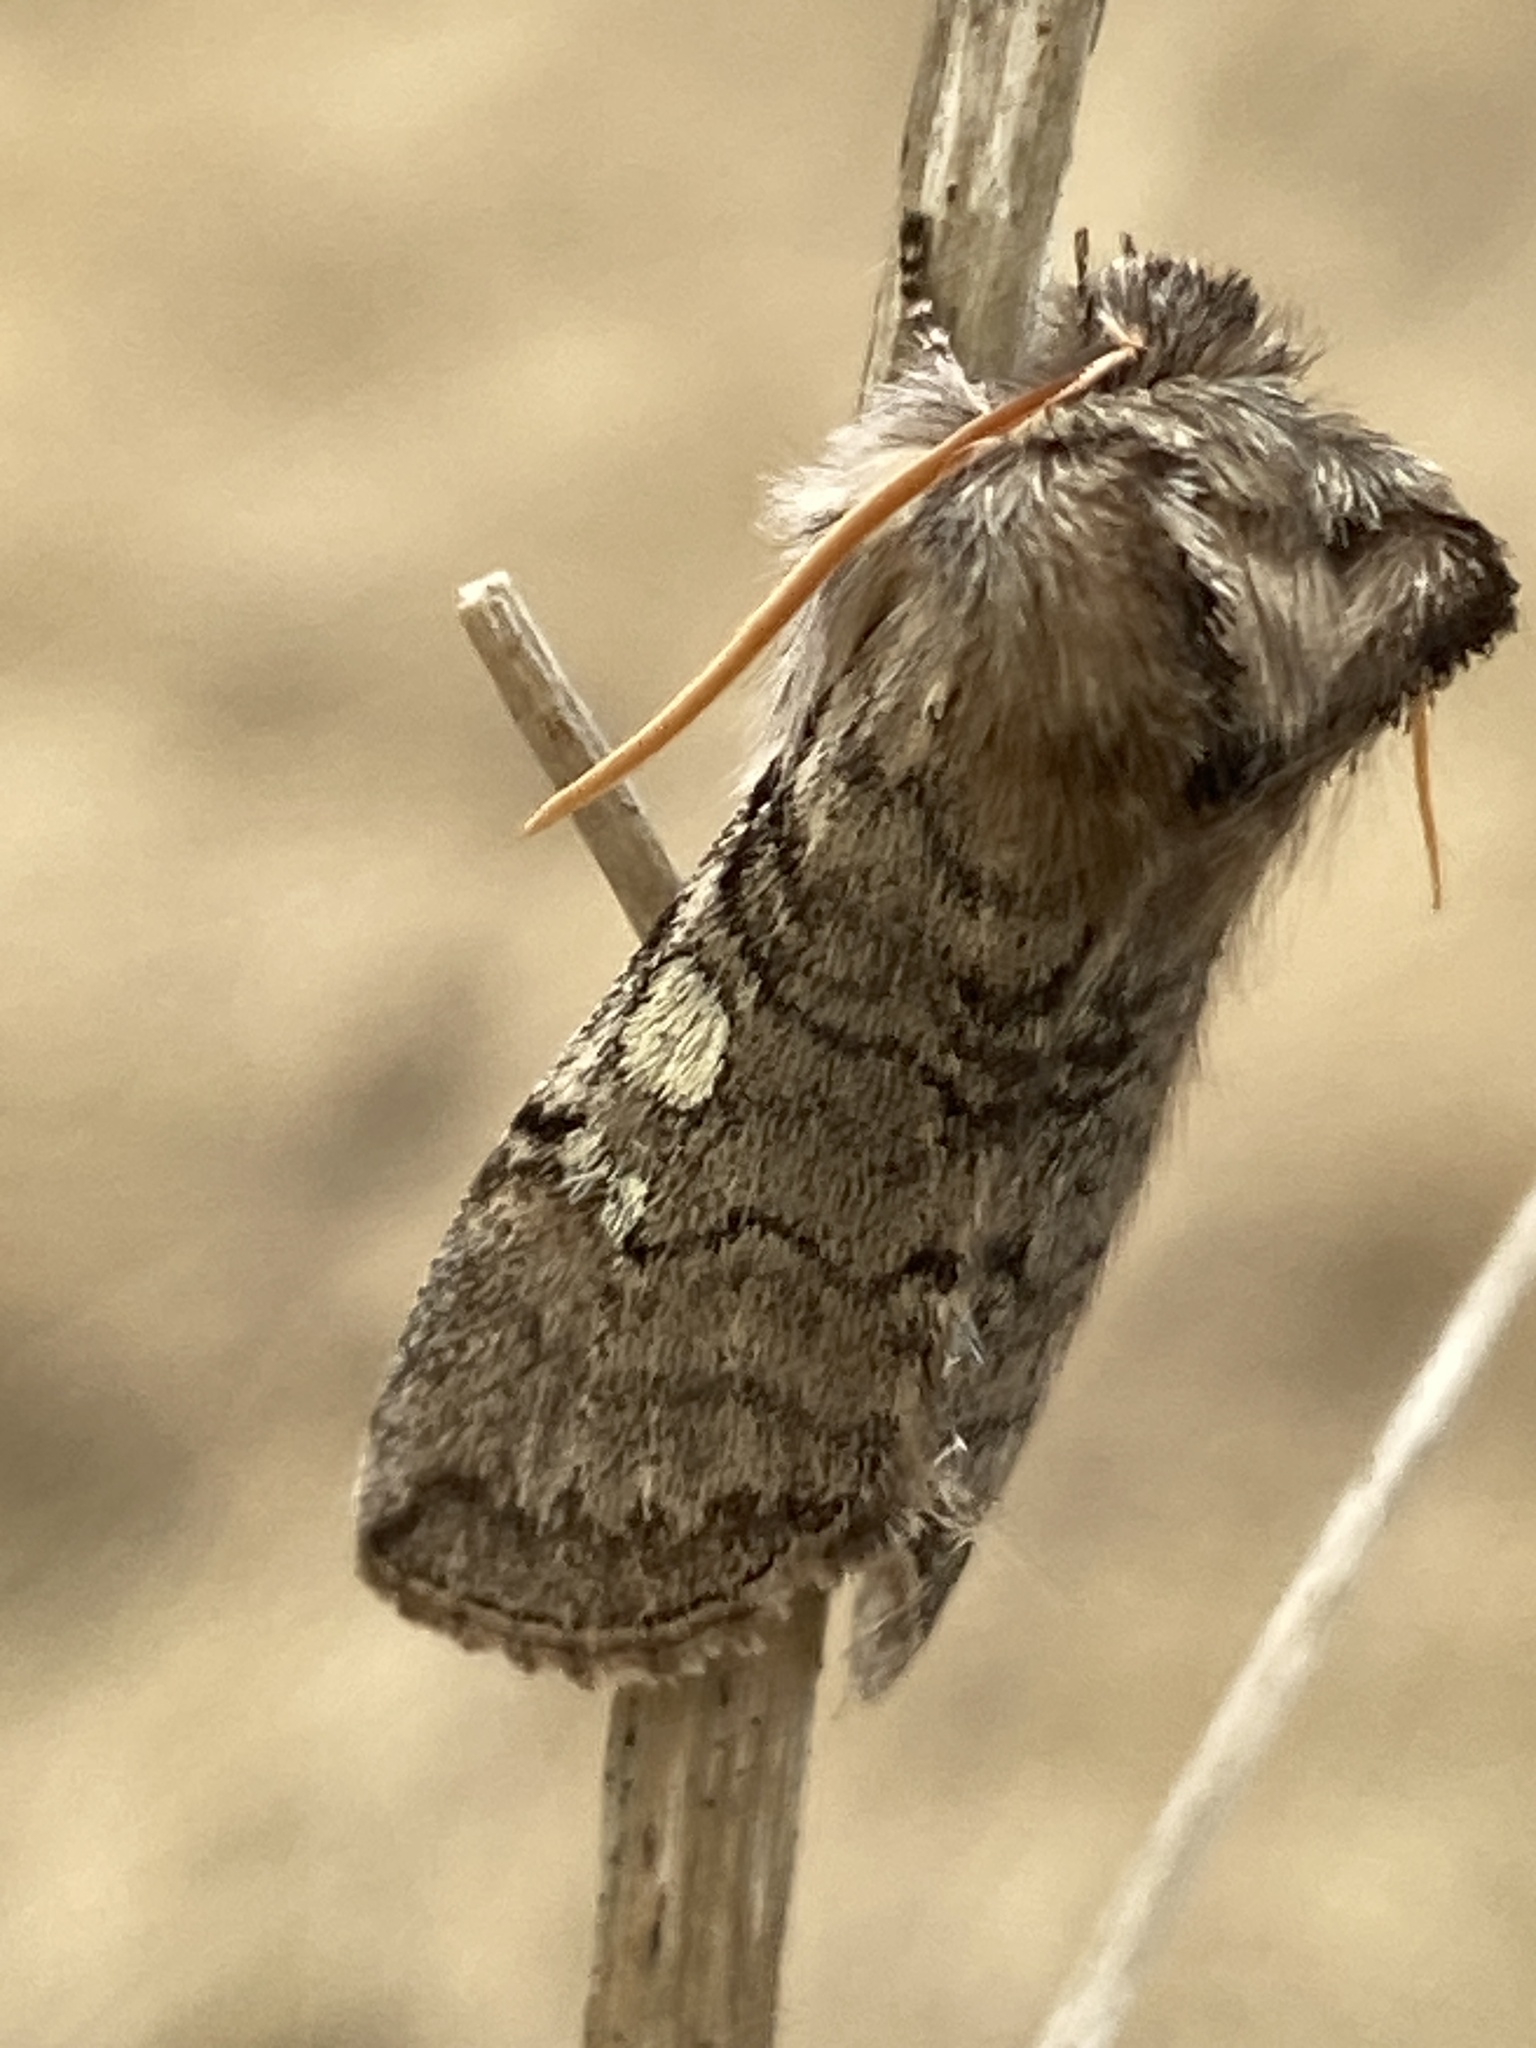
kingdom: Animalia
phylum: Arthropoda
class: Insecta
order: Lepidoptera
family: Drepanidae
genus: Achlya
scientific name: Achlya flavicornis
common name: Yellow horned
